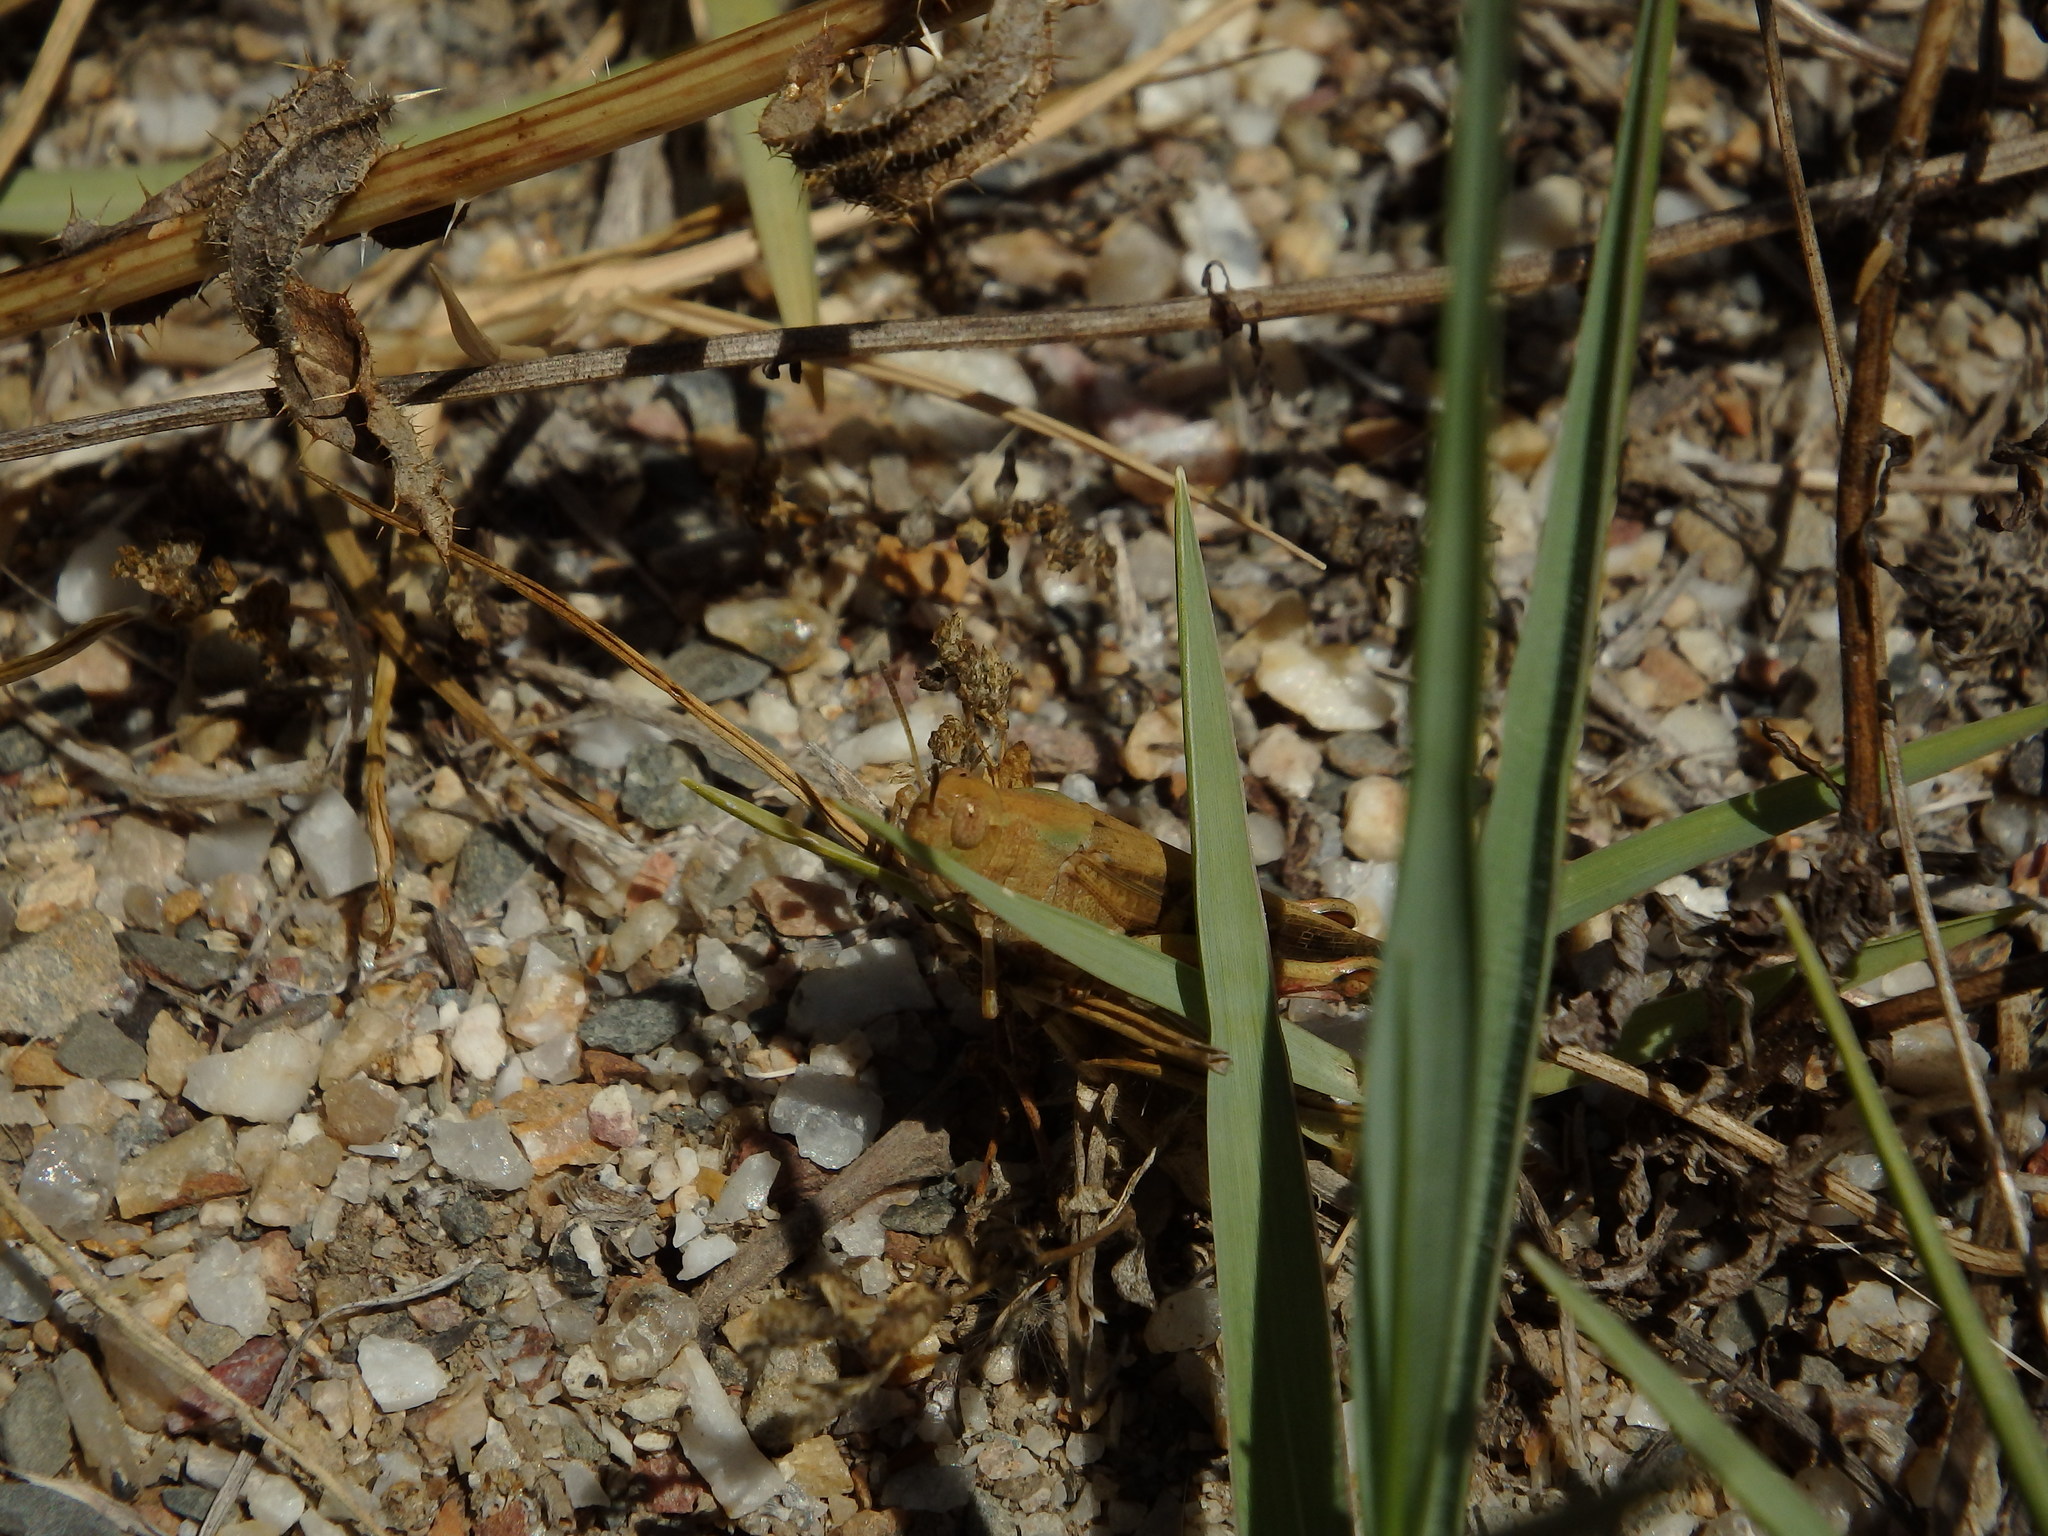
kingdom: Animalia
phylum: Arthropoda
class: Insecta
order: Orthoptera
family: Acrididae
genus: Aiolopus
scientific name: Aiolopus strepens
